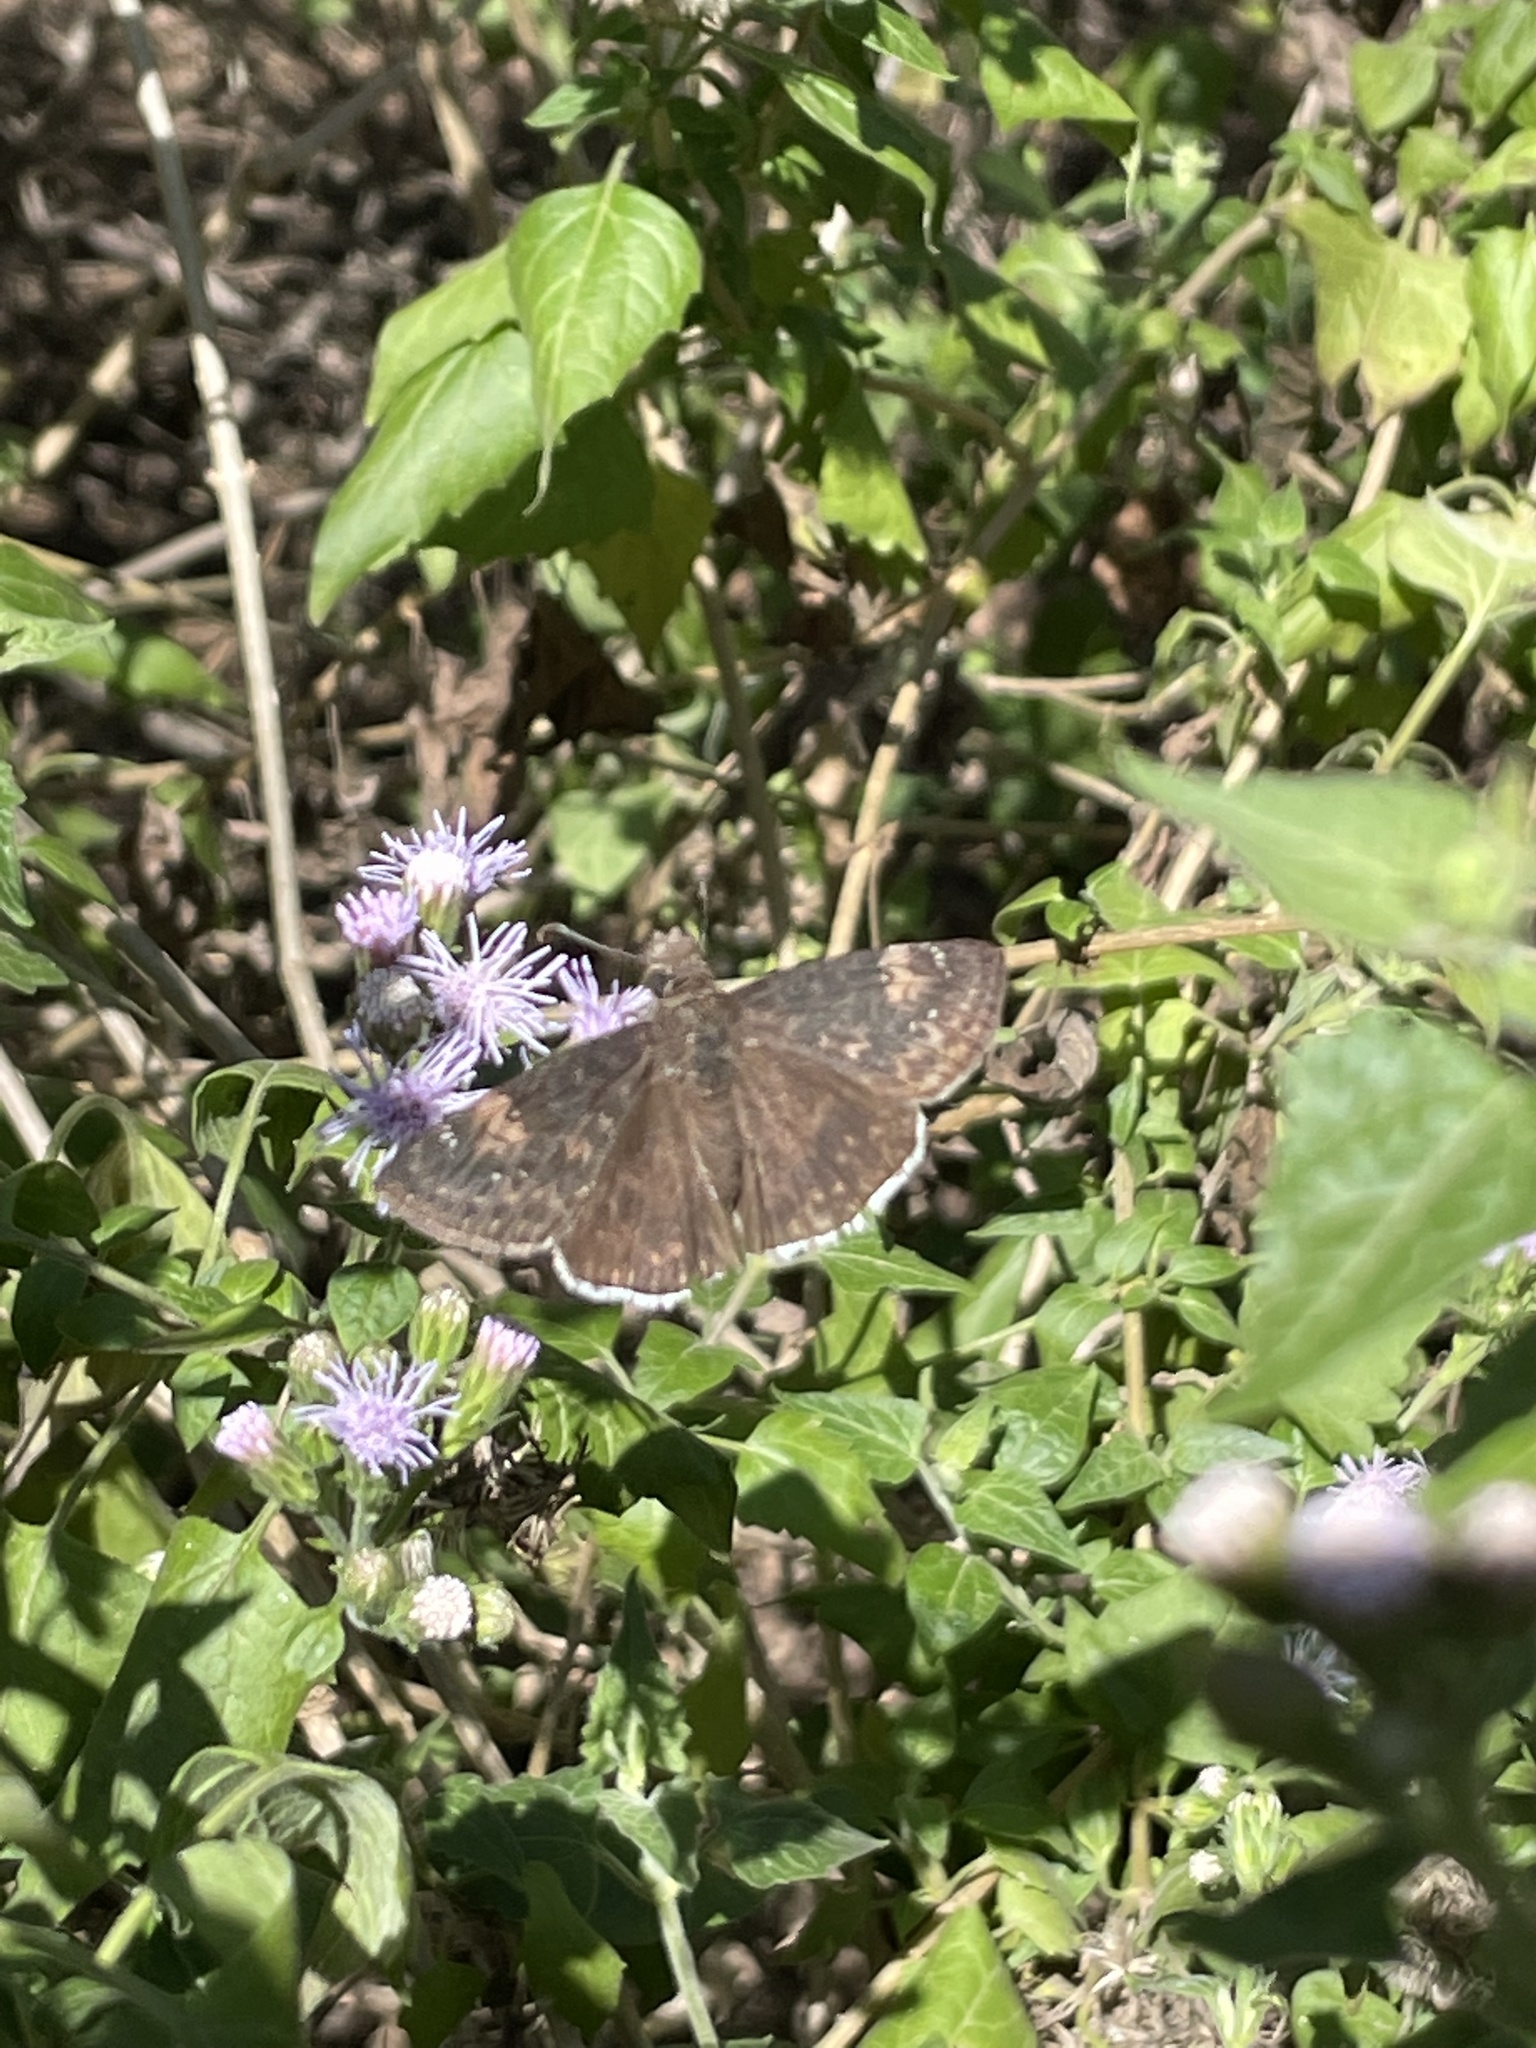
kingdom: Animalia
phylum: Arthropoda
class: Insecta
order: Lepidoptera
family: Hesperiidae
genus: Erynnis
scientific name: Erynnis funeralis
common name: Funereal duskywing
